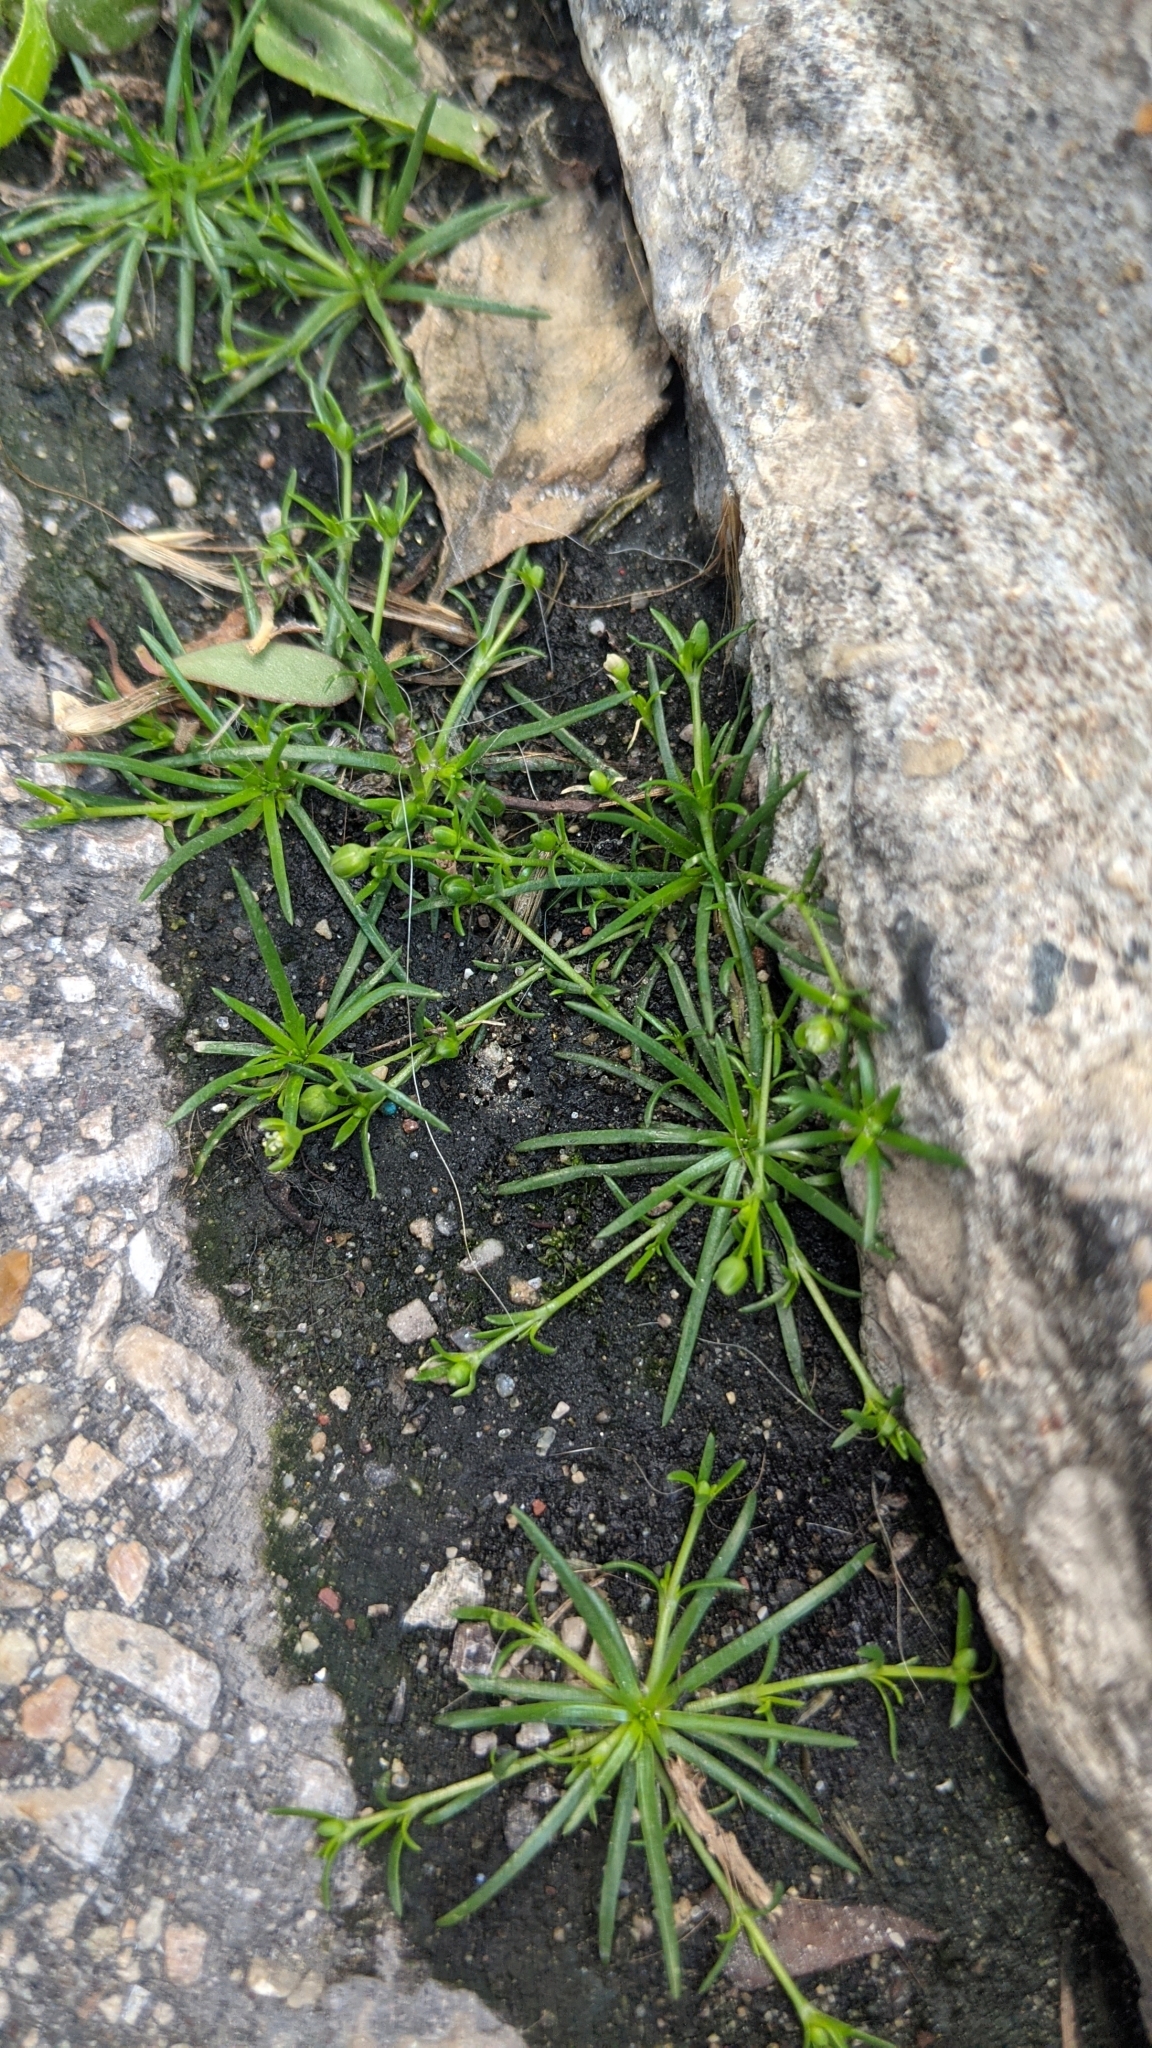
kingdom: Plantae
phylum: Tracheophyta
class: Magnoliopsida
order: Caryophyllales
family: Caryophyllaceae
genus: Sagina
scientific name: Sagina procumbens
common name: Procumbent pearlwort
